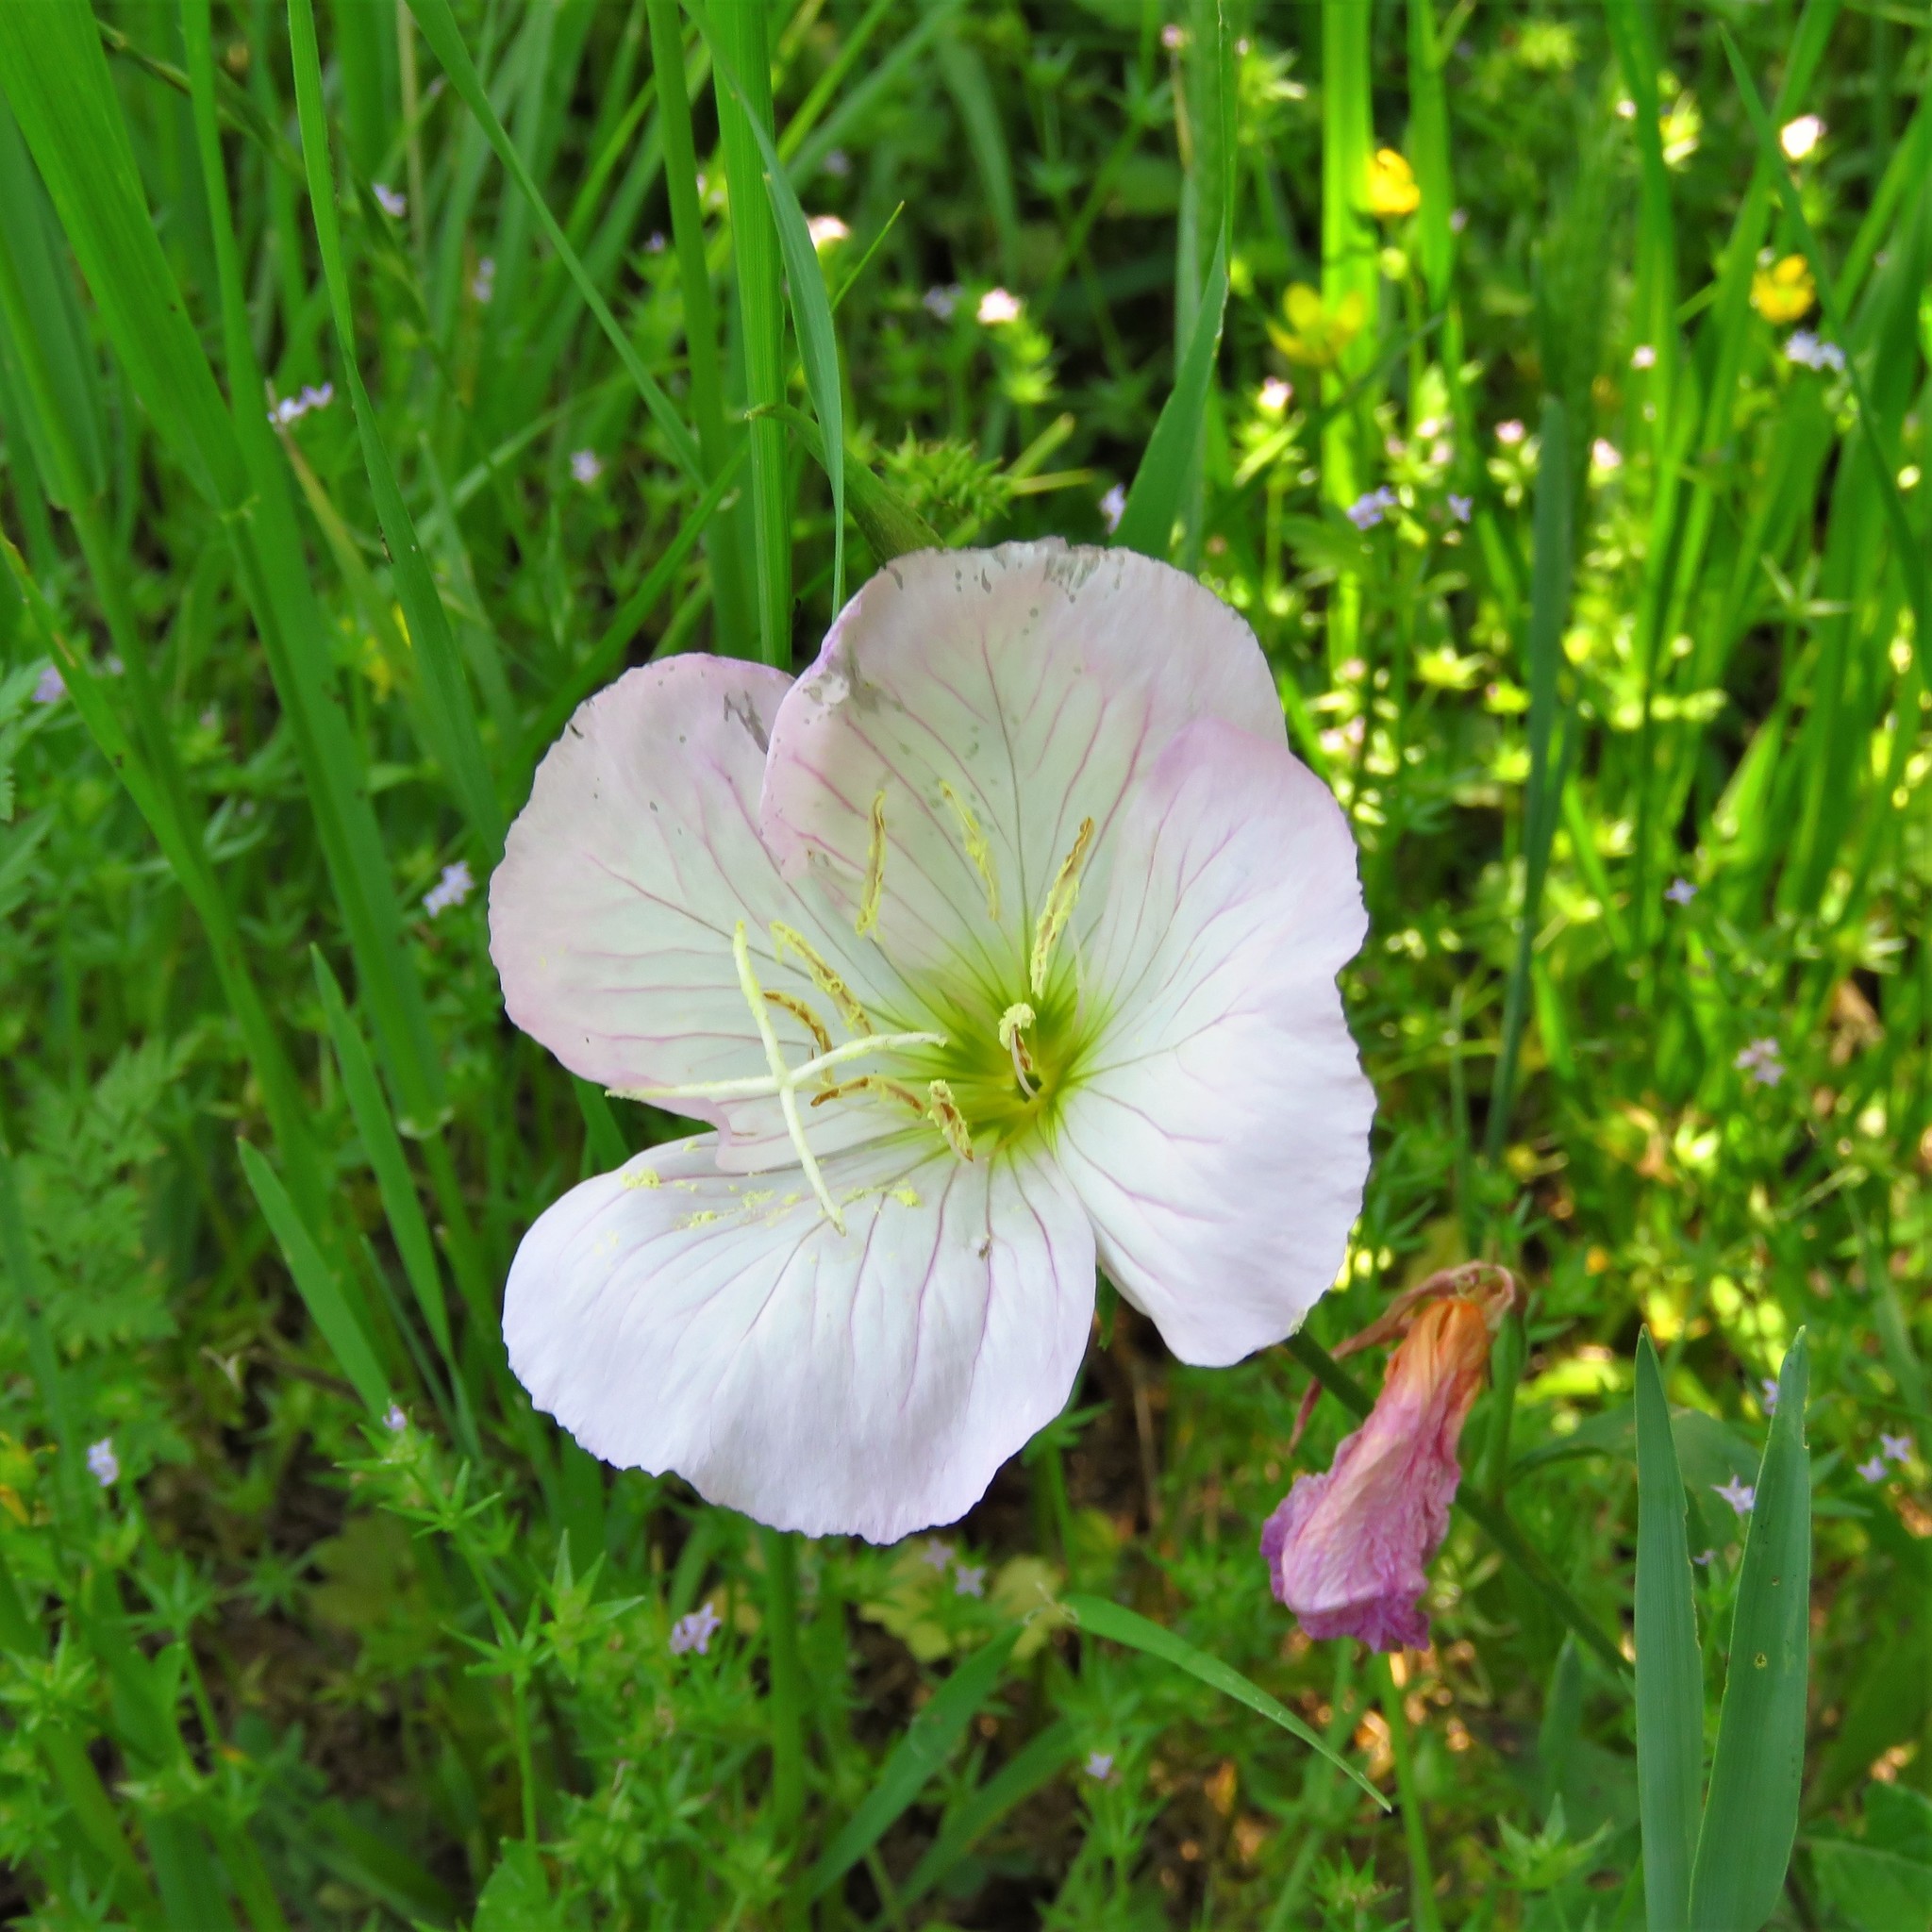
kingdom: Plantae
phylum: Tracheophyta
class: Magnoliopsida
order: Myrtales
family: Onagraceae
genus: Oenothera
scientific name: Oenothera speciosa
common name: White evening-primrose
